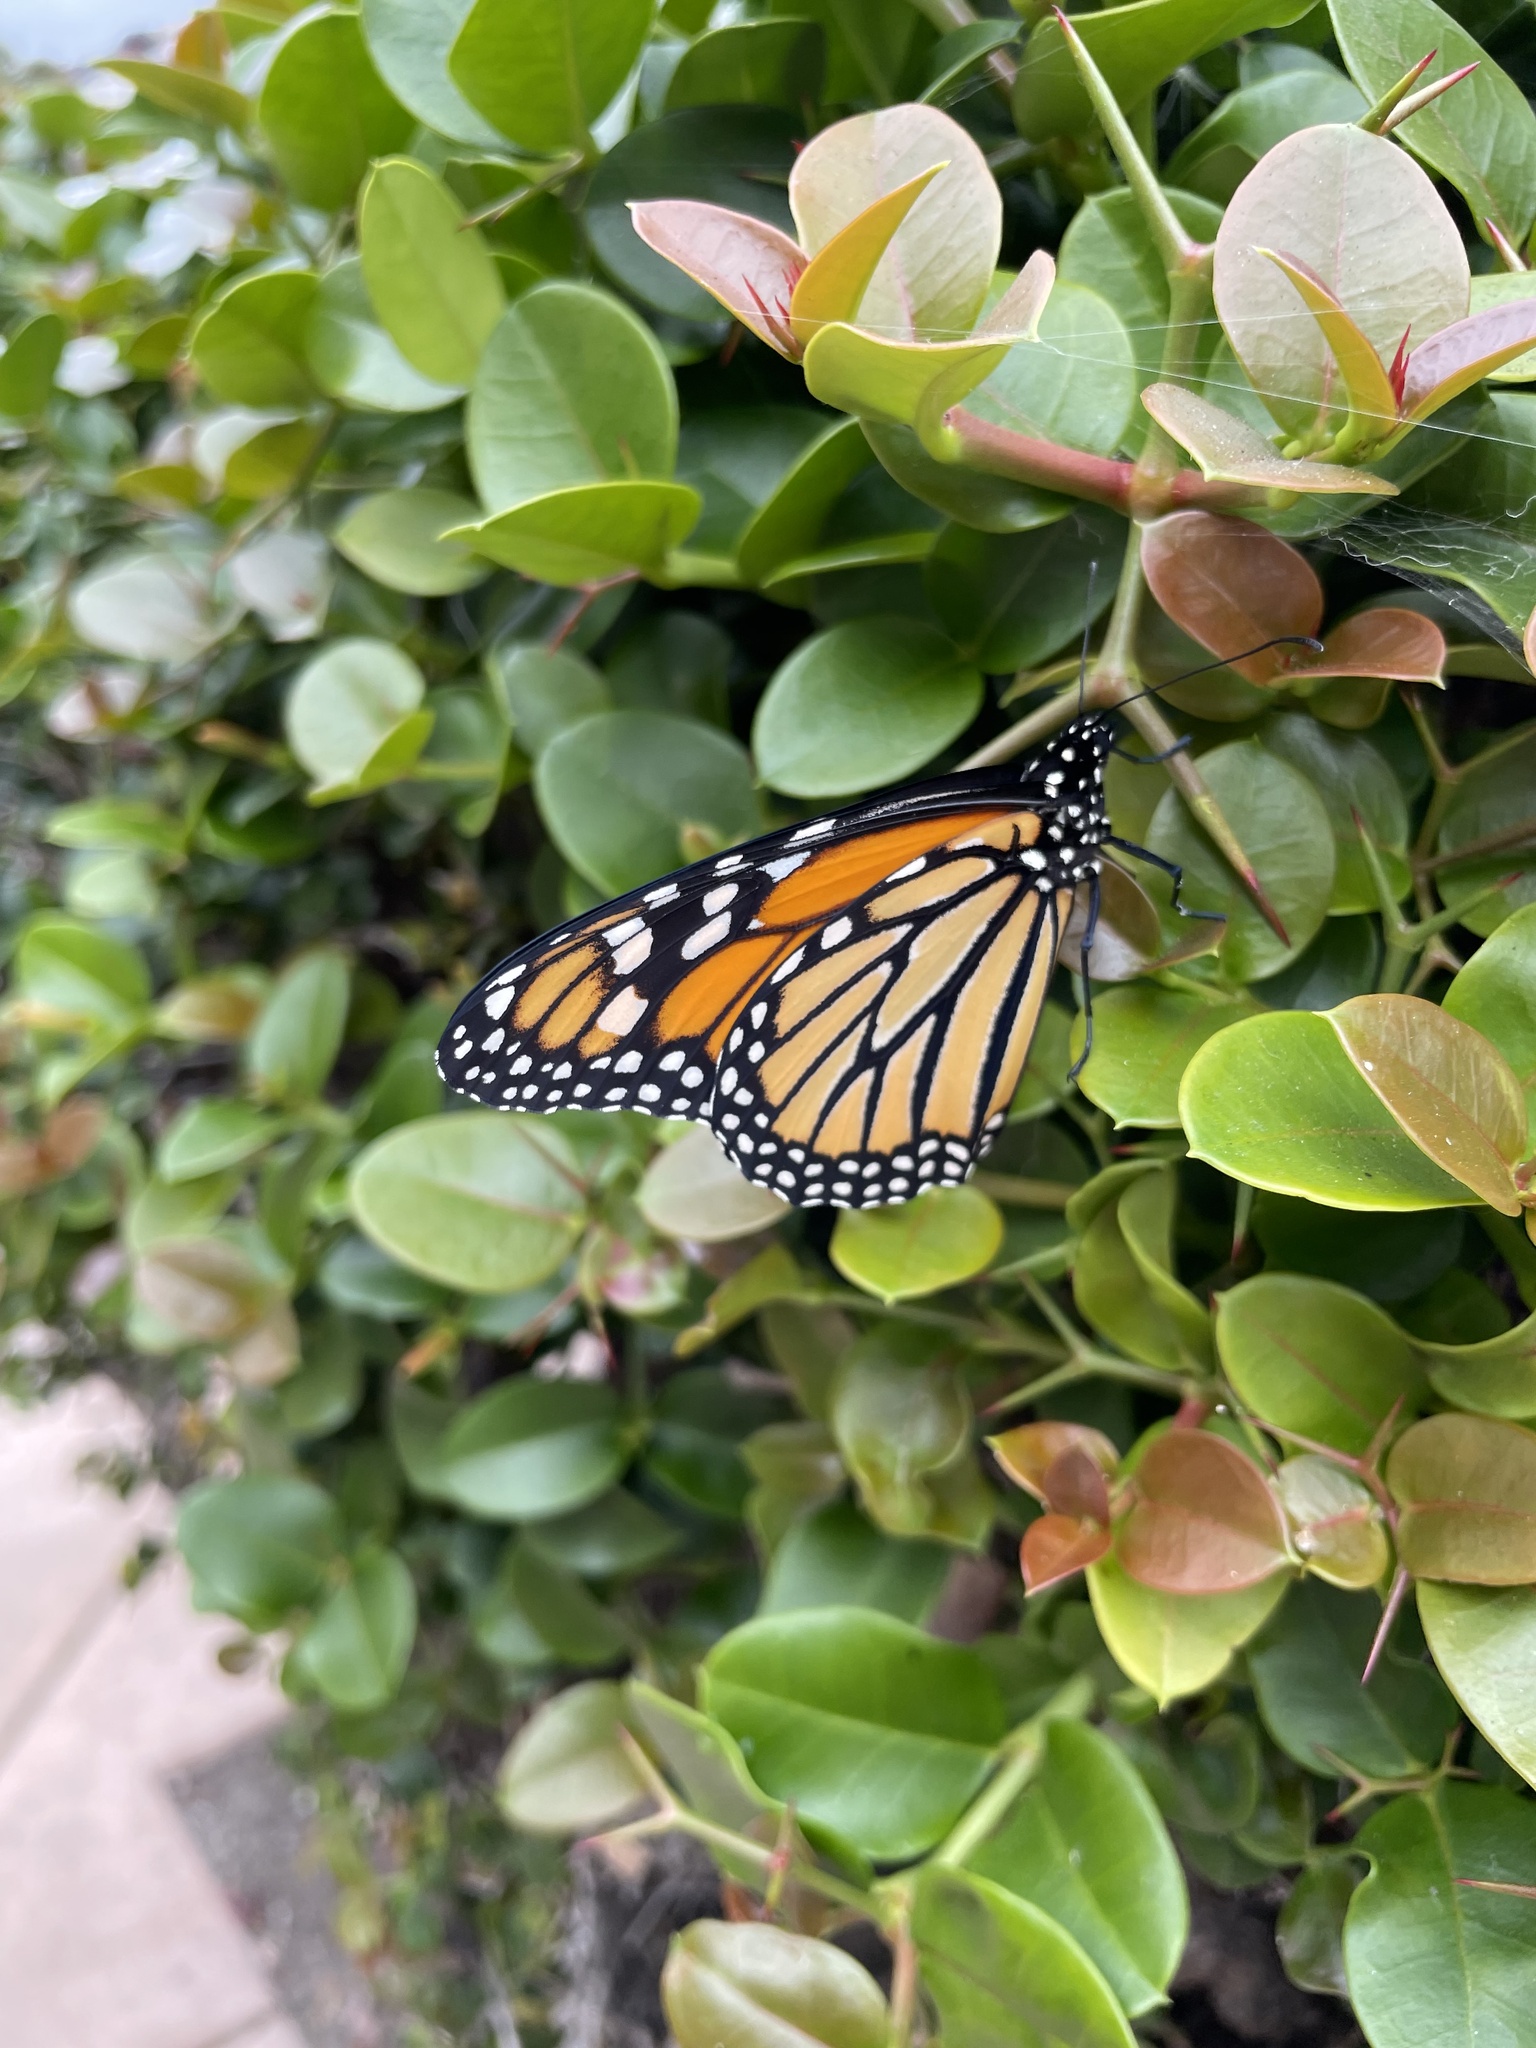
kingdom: Animalia
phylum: Arthropoda
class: Insecta
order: Lepidoptera
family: Nymphalidae
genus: Danaus
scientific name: Danaus plexippus
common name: Monarch
